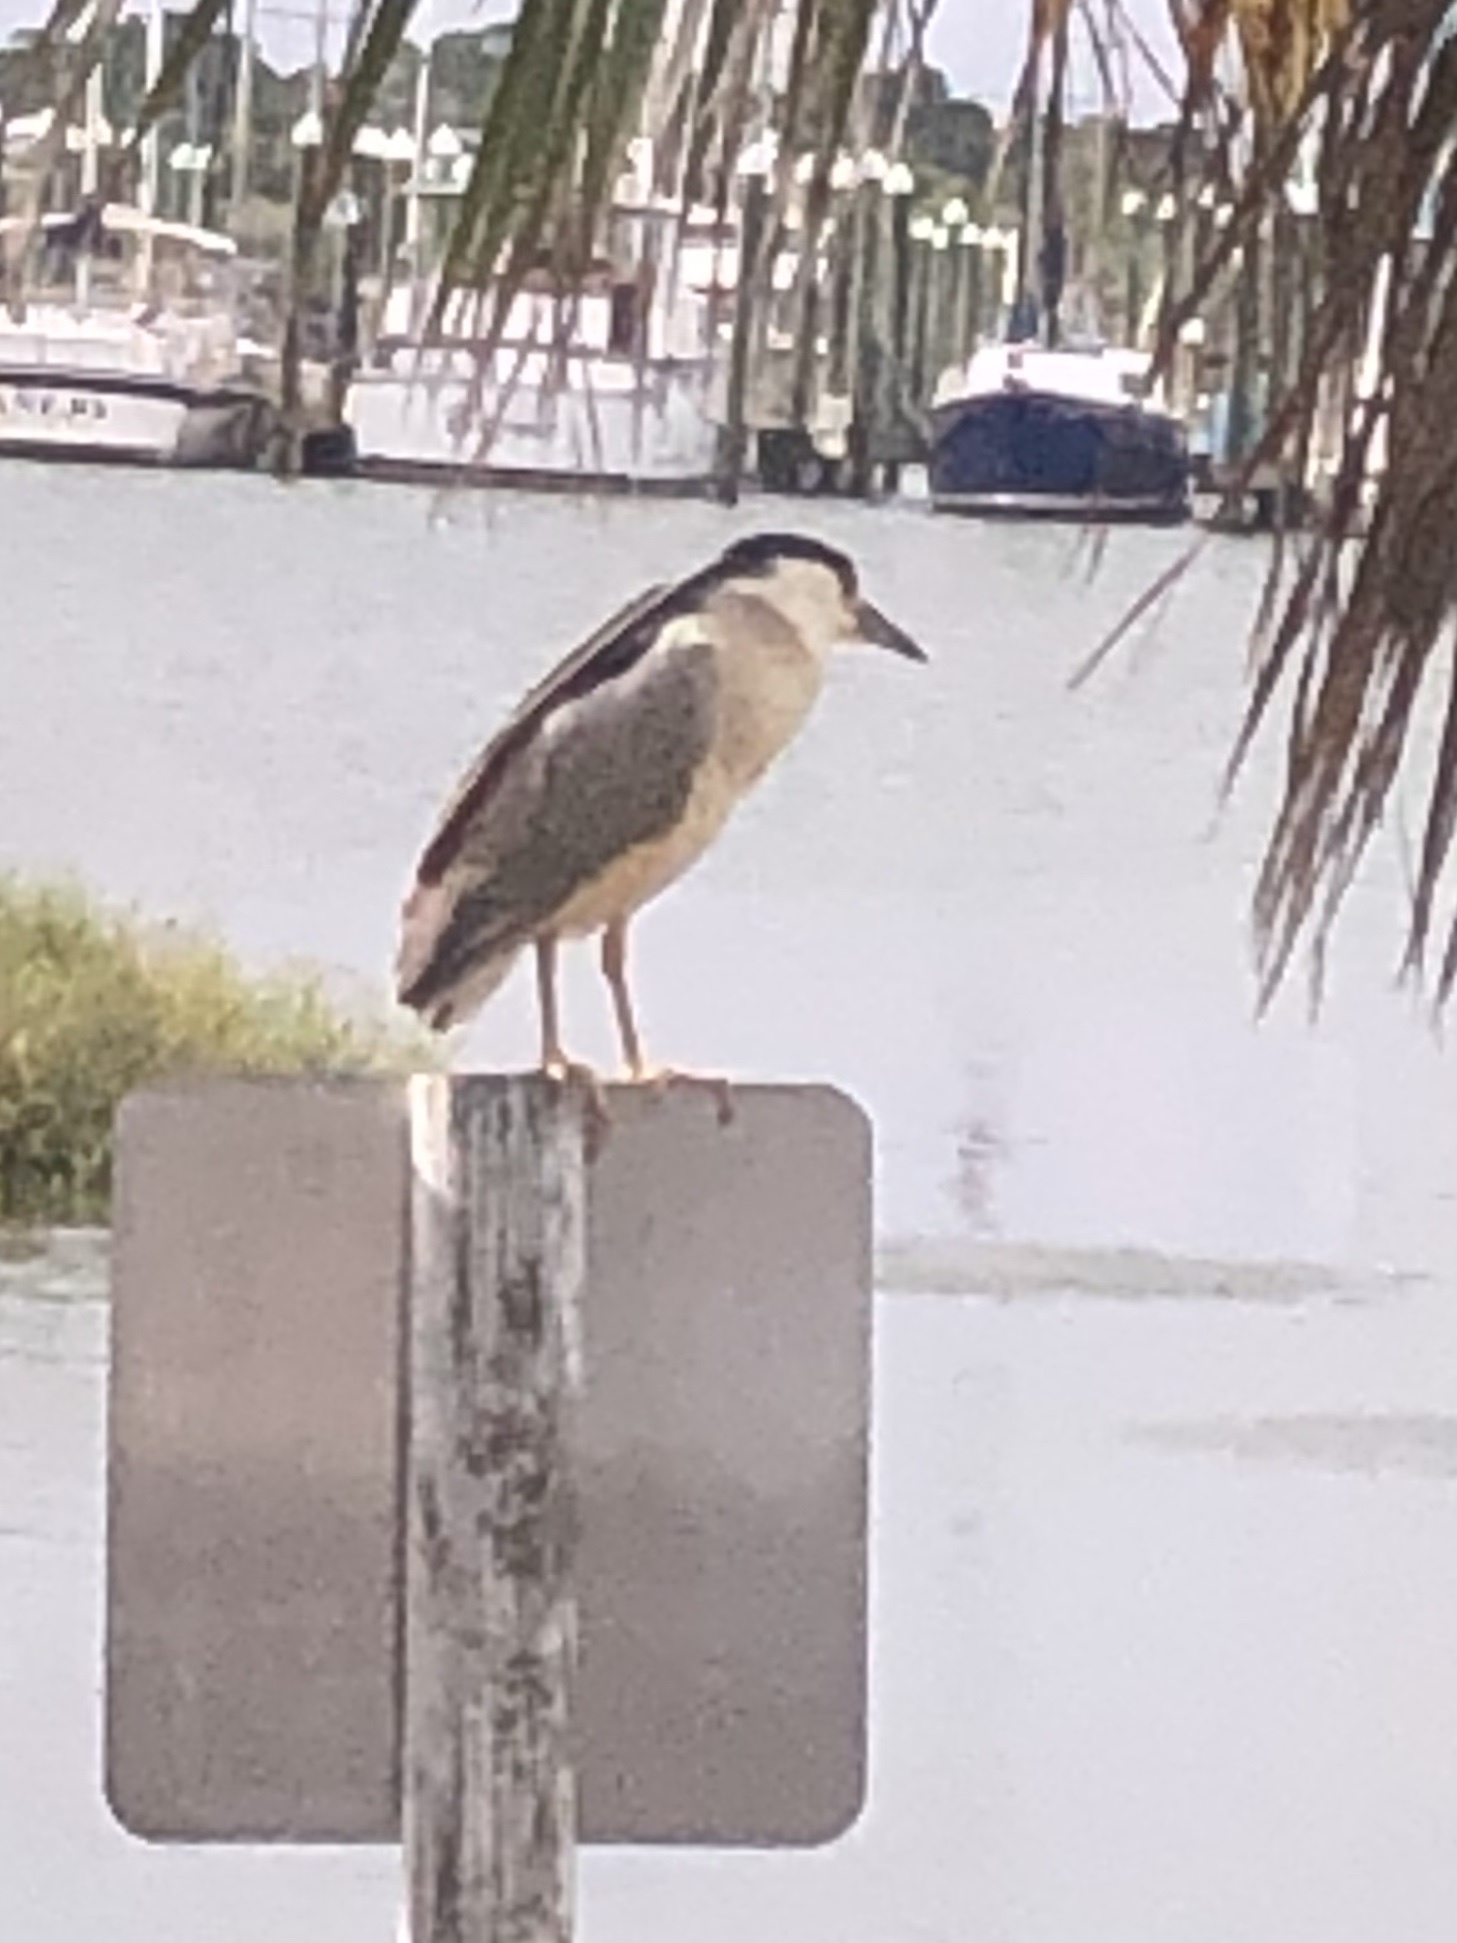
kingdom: Animalia
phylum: Chordata
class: Aves
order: Pelecaniformes
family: Ardeidae
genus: Nycticorax
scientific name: Nycticorax nycticorax
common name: Black-crowned night heron
